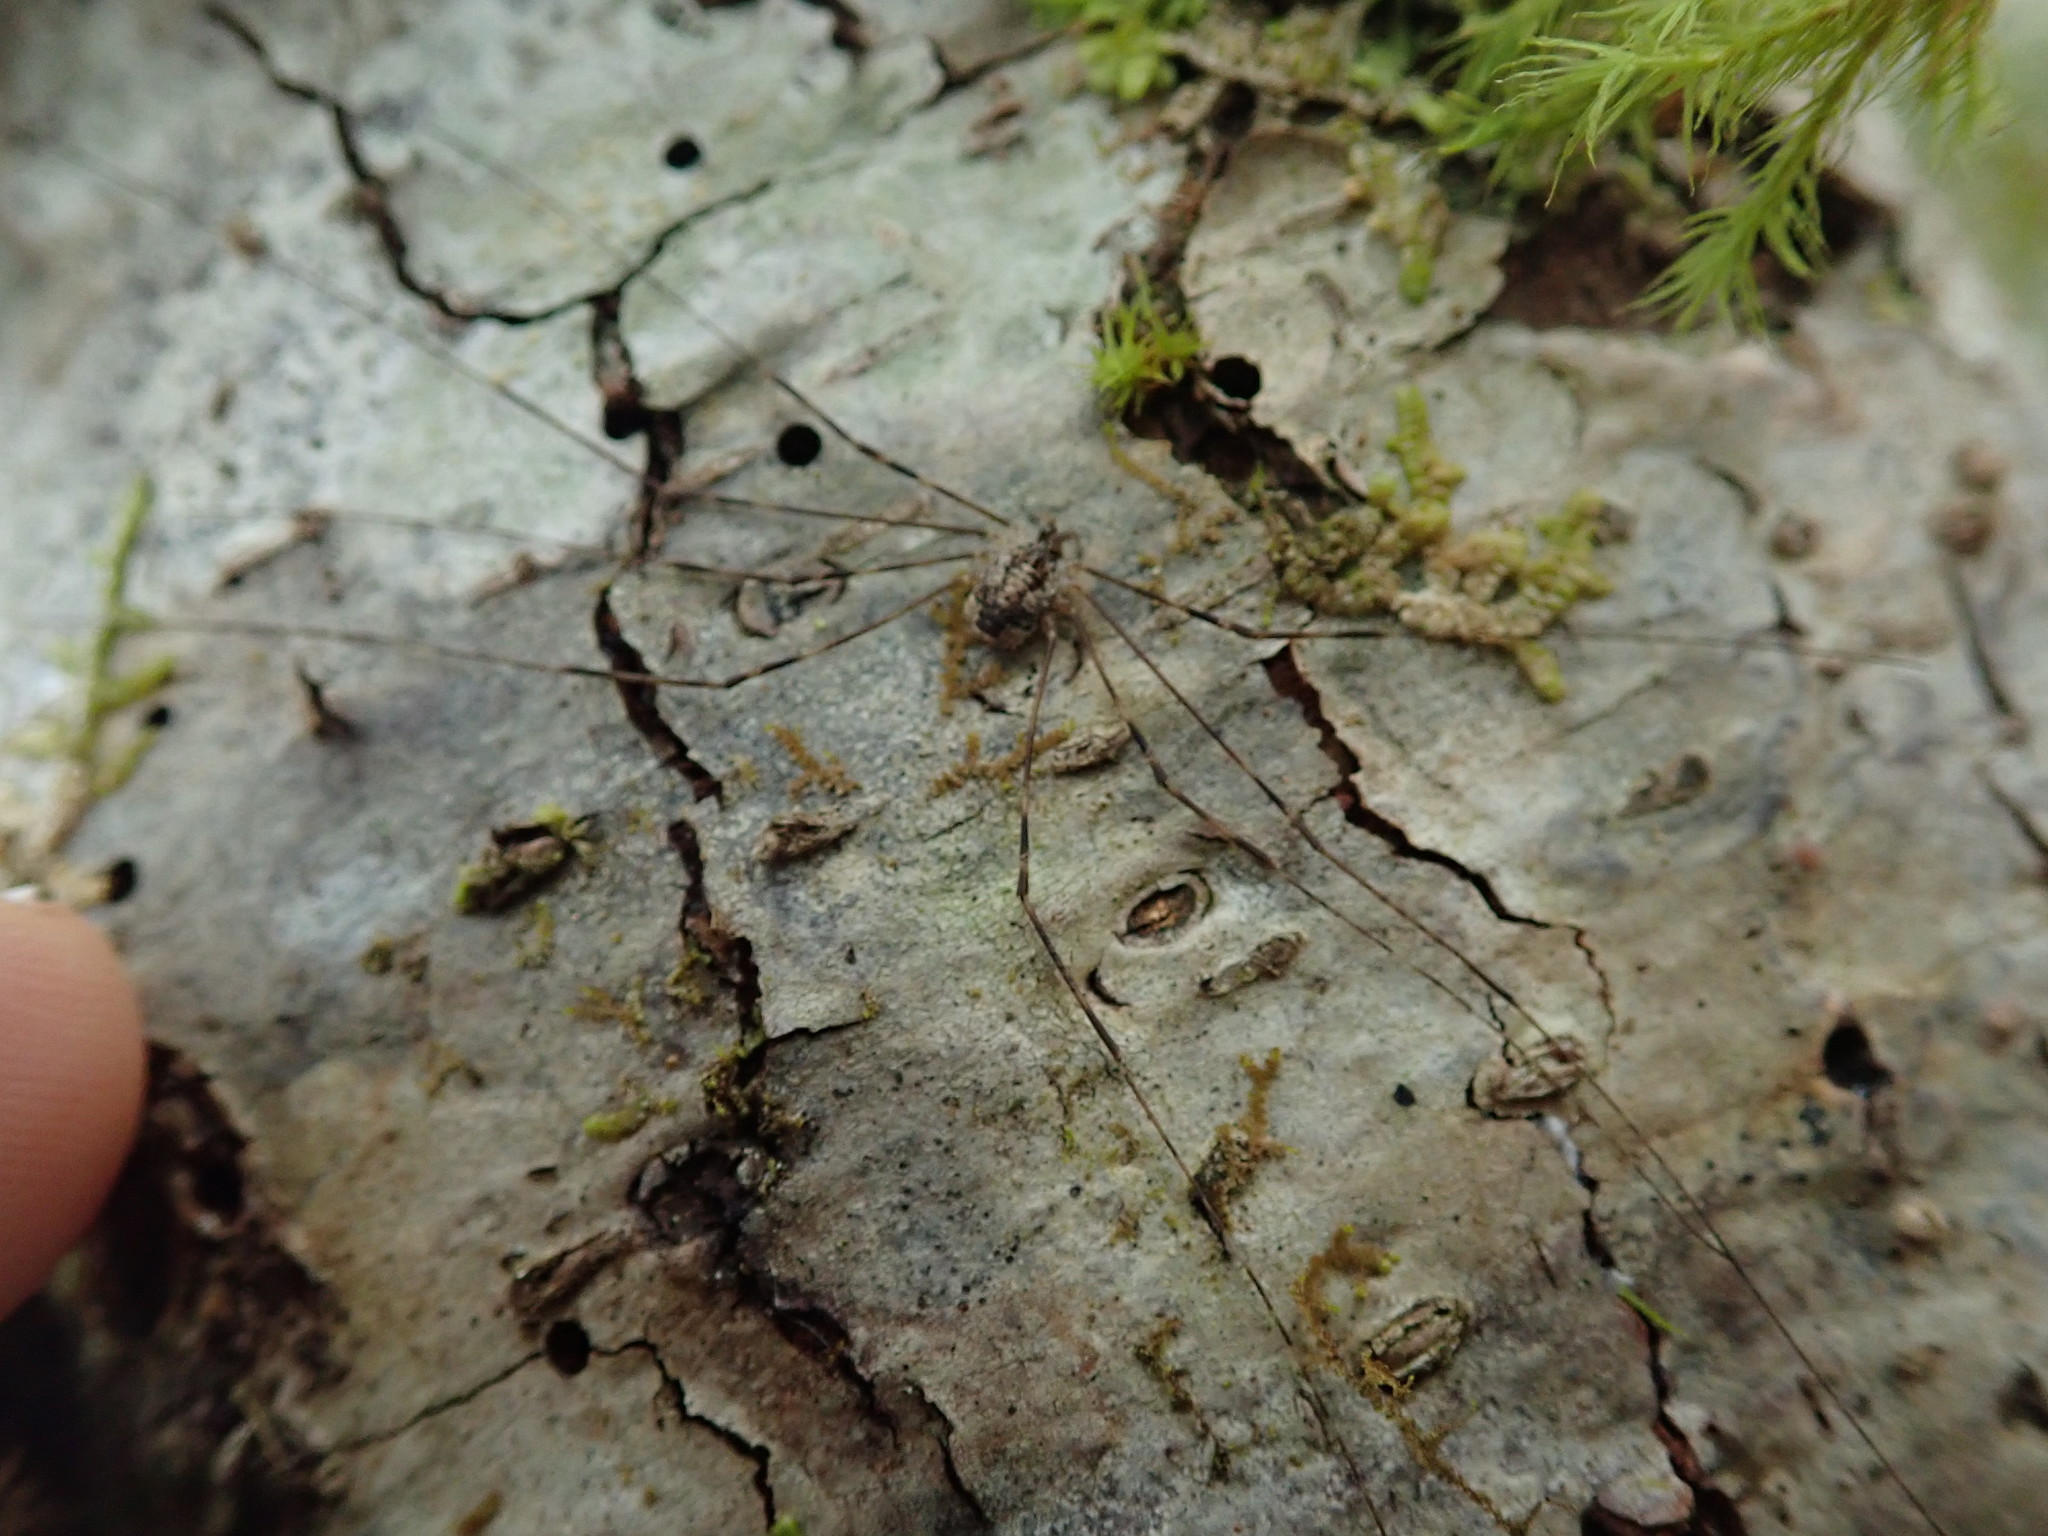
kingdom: Animalia
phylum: Arthropoda
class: Arachnida
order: Opiliones
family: Phalangiidae
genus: Leptobunus
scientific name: Leptobunus parvulus
